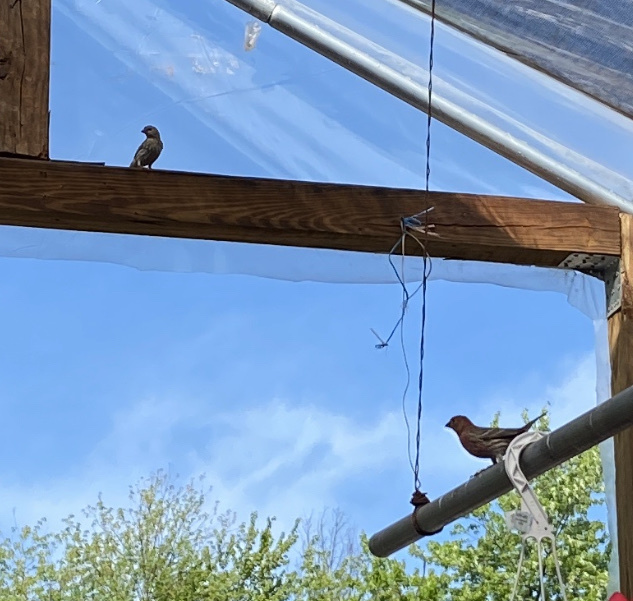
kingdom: Animalia
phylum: Chordata
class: Aves
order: Passeriformes
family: Fringillidae
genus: Haemorhous
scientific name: Haemorhous mexicanus
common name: House finch
